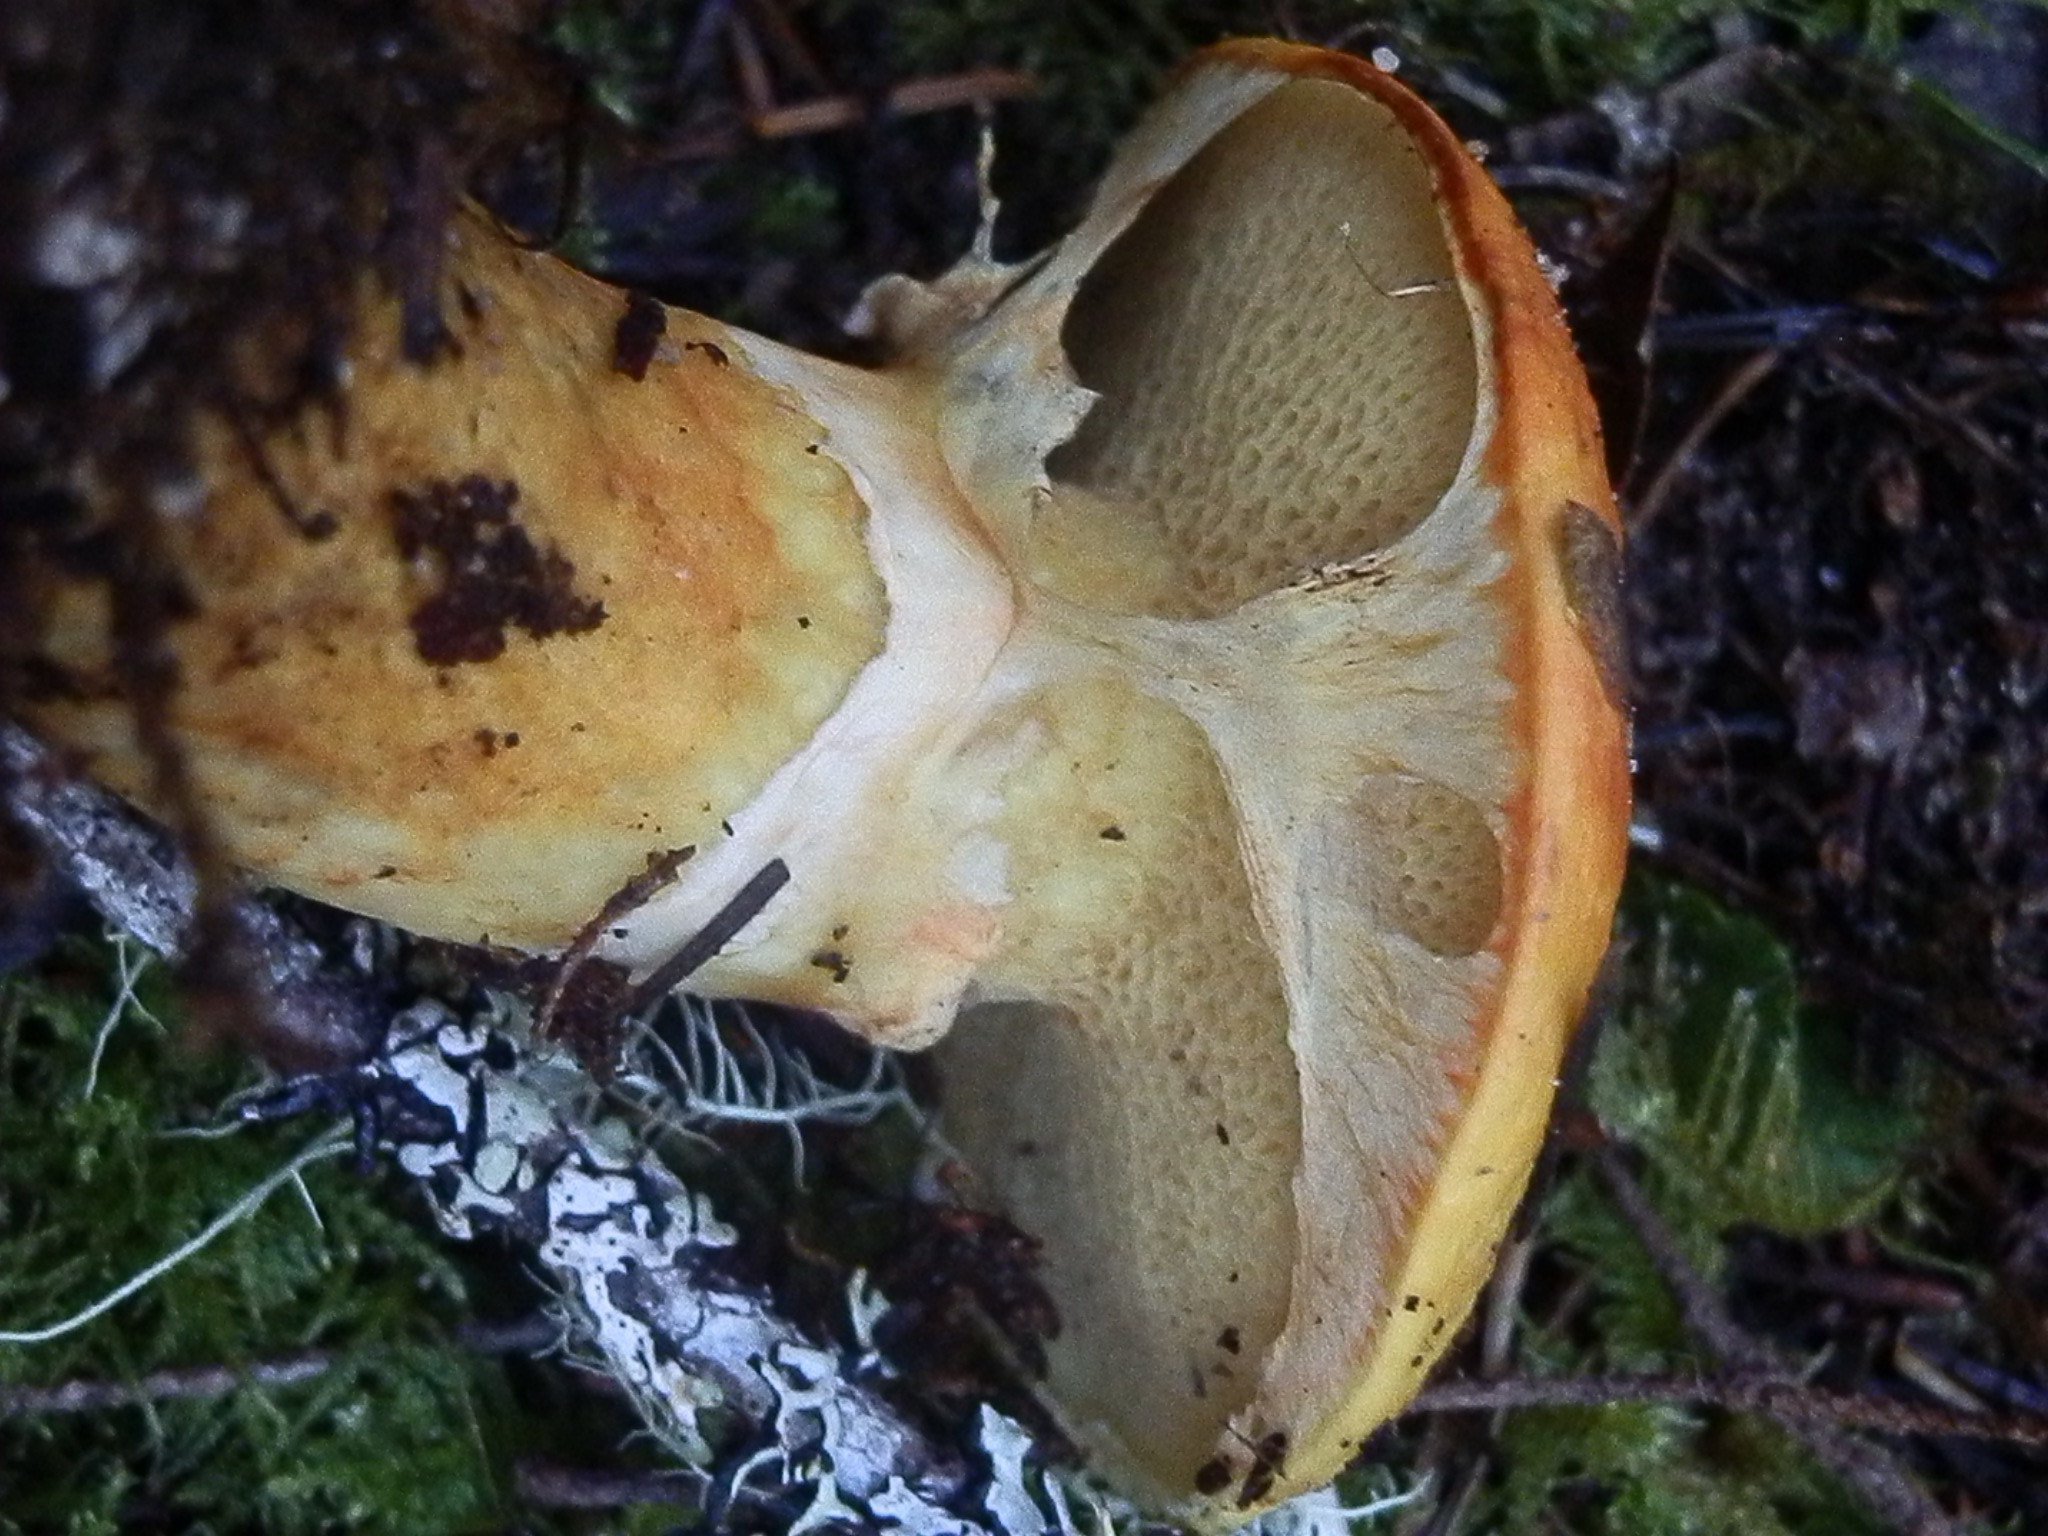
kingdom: Fungi
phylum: Basidiomycota
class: Agaricomycetes
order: Boletales
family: Suillaceae
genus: Suillus
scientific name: Suillus caerulescens
